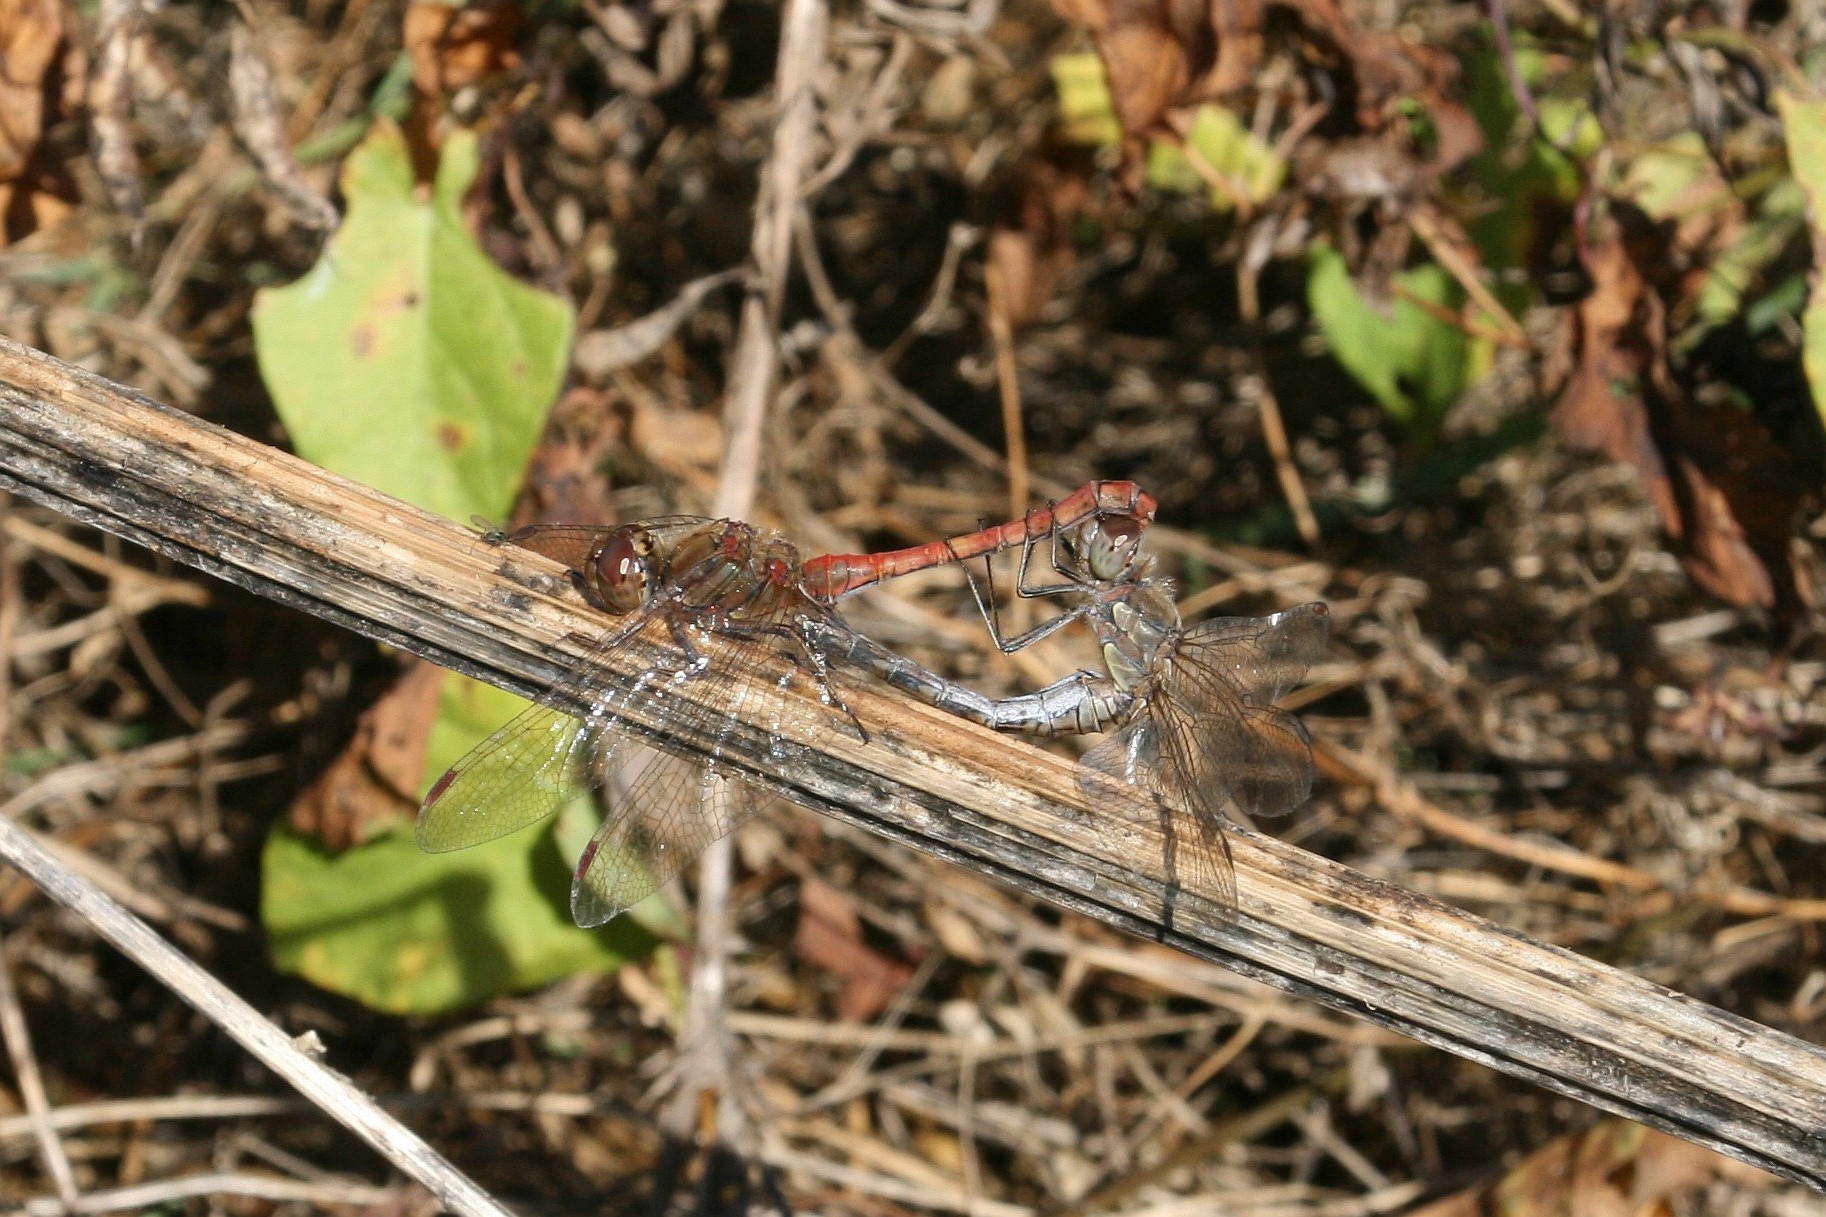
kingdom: Animalia
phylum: Arthropoda
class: Insecta
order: Odonata
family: Libellulidae
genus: Sympetrum
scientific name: Sympetrum striolatum
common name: Common darter
